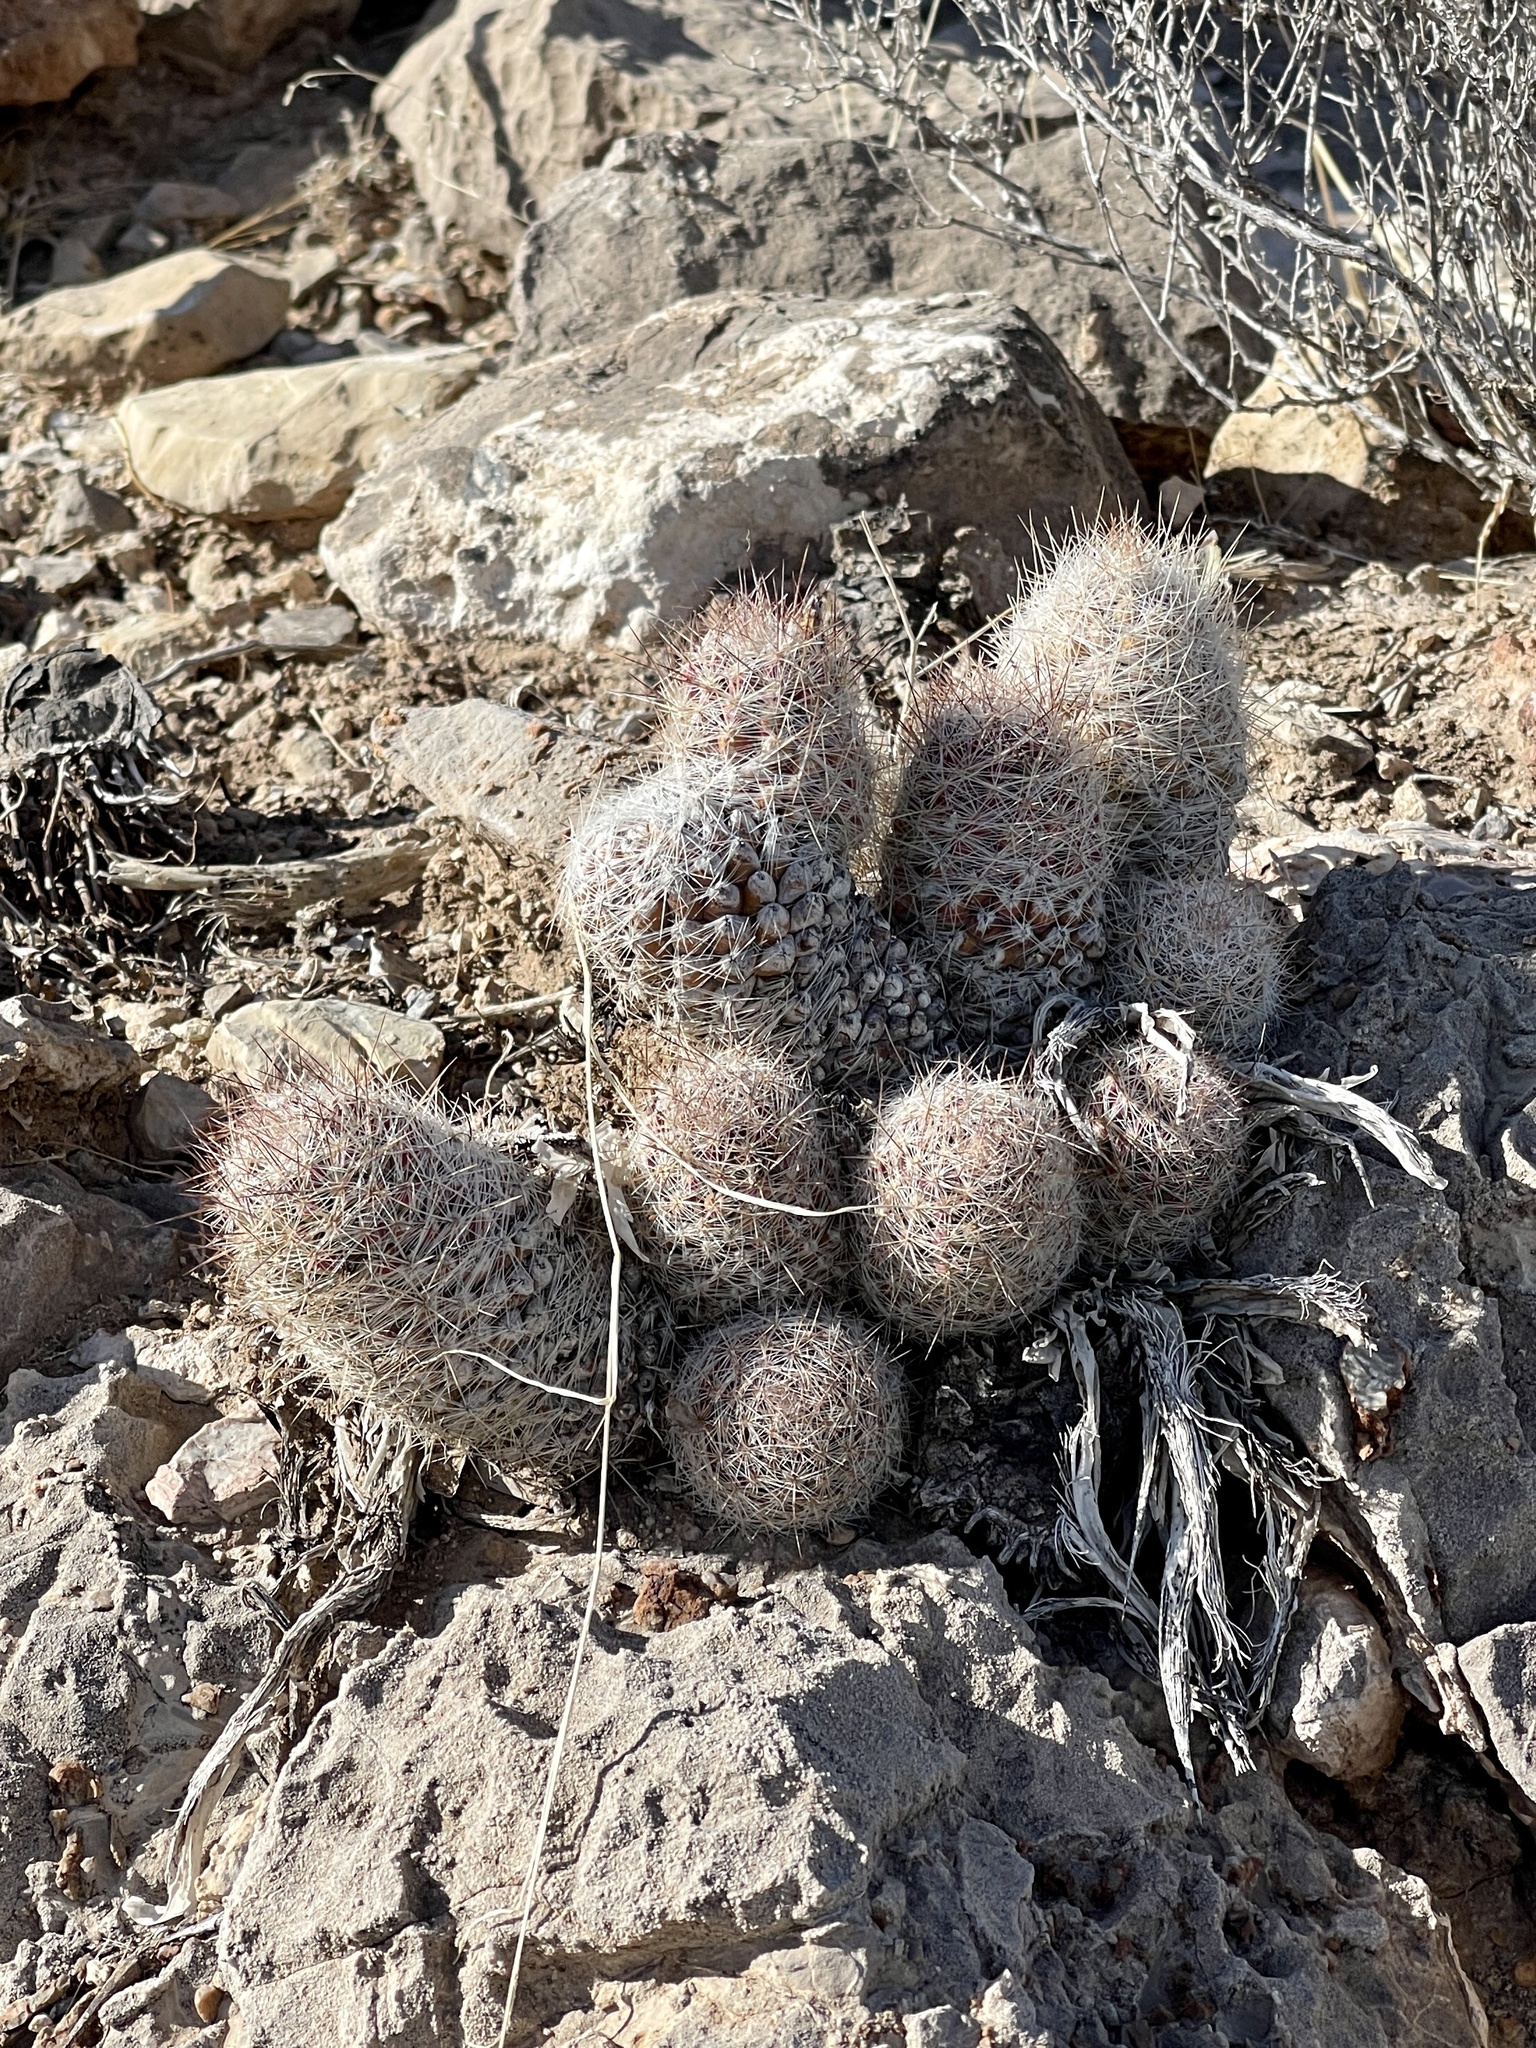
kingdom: Plantae
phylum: Tracheophyta
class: Magnoliopsida
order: Caryophyllales
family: Cactaceae
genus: Pelecyphora
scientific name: Pelecyphora tuberculosa
